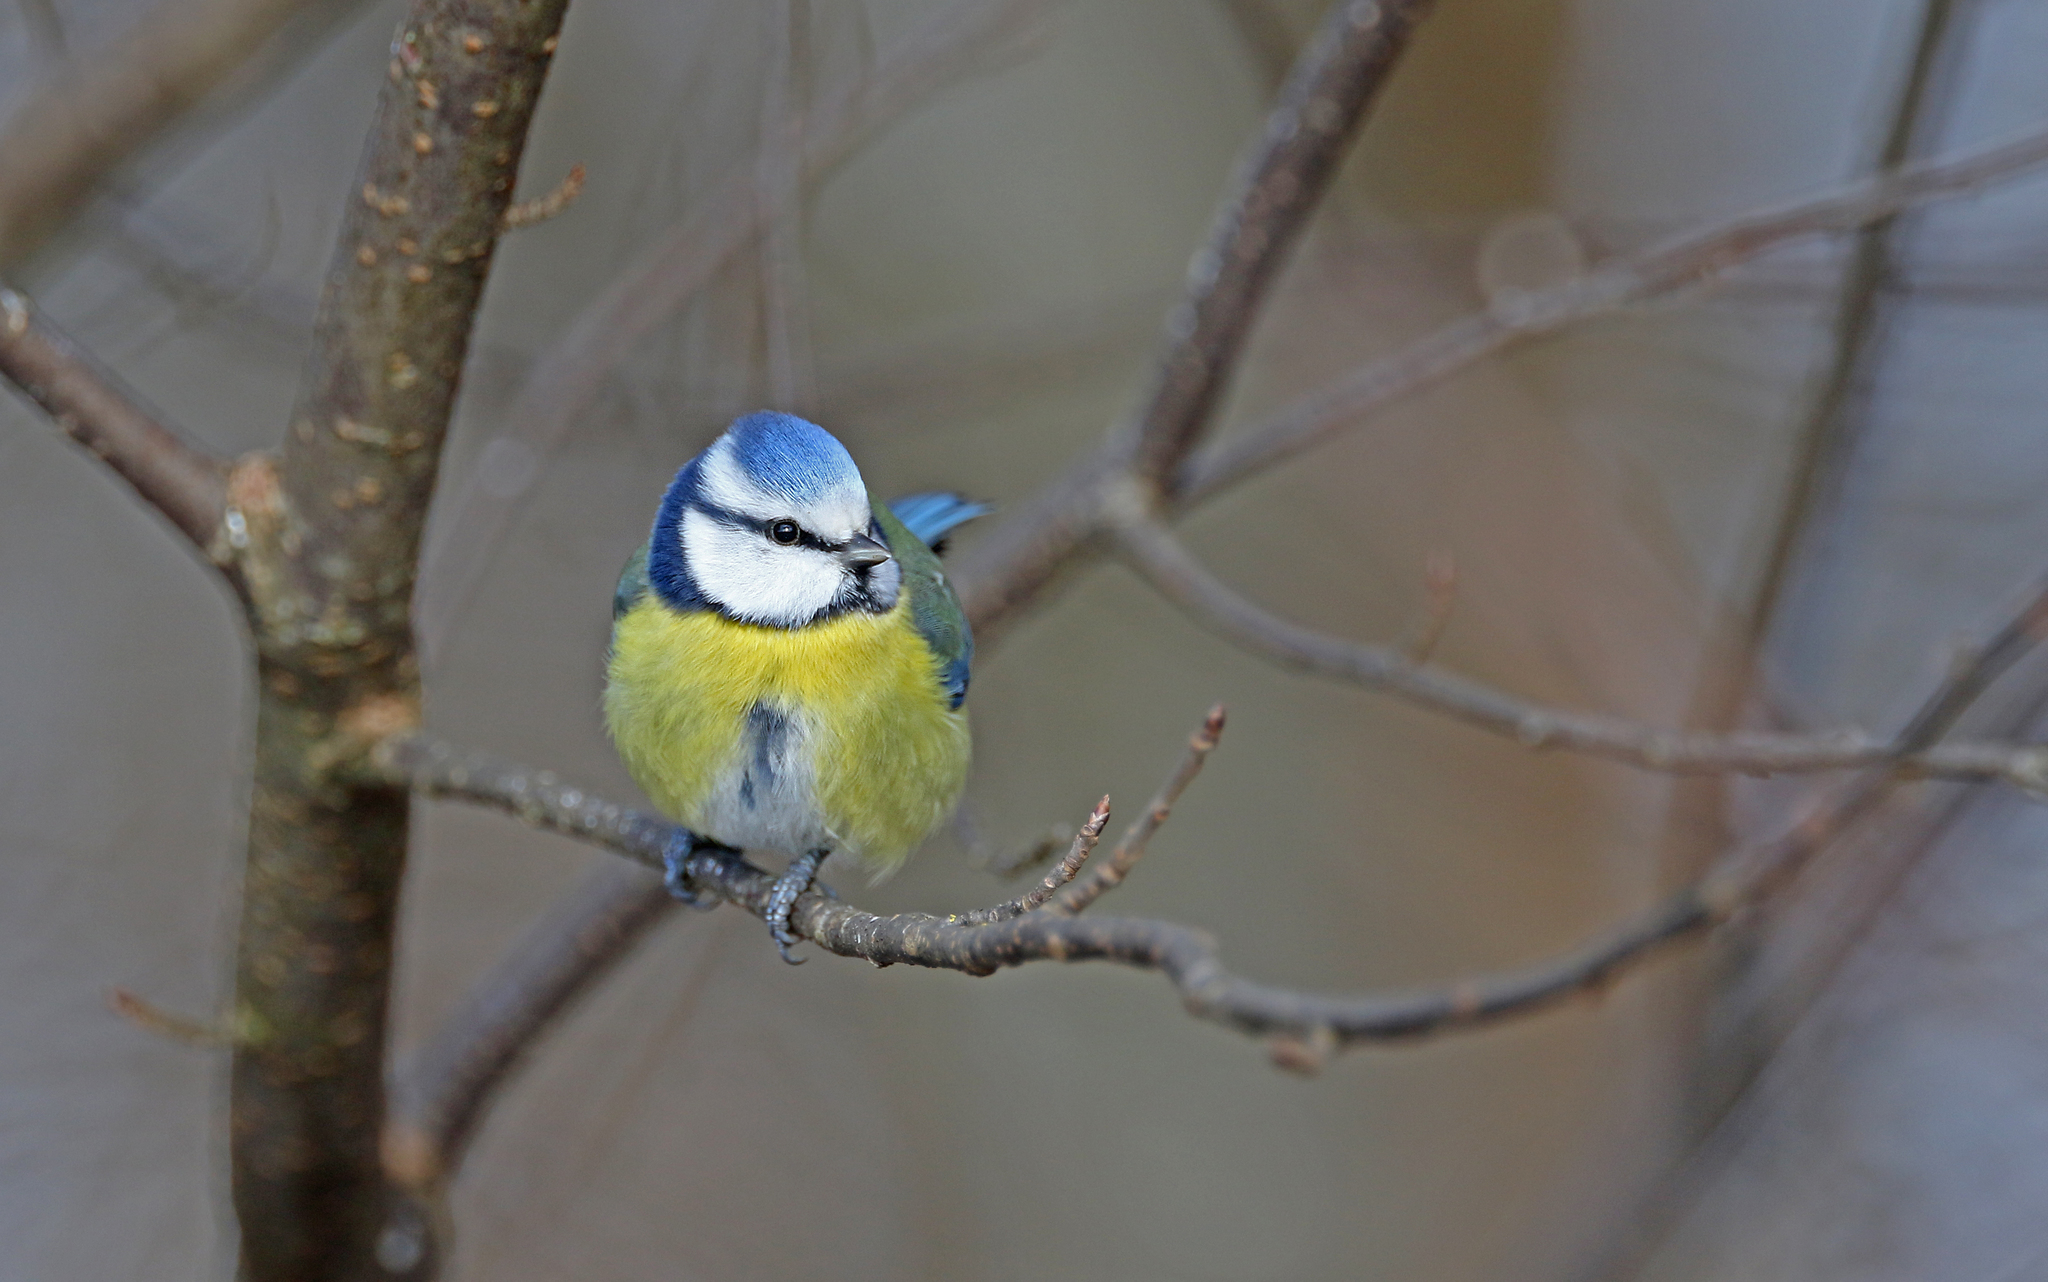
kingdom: Animalia
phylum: Chordata
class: Aves
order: Passeriformes
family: Paridae
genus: Cyanistes
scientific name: Cyanistes caeruleus
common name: Eurasian blue tit
